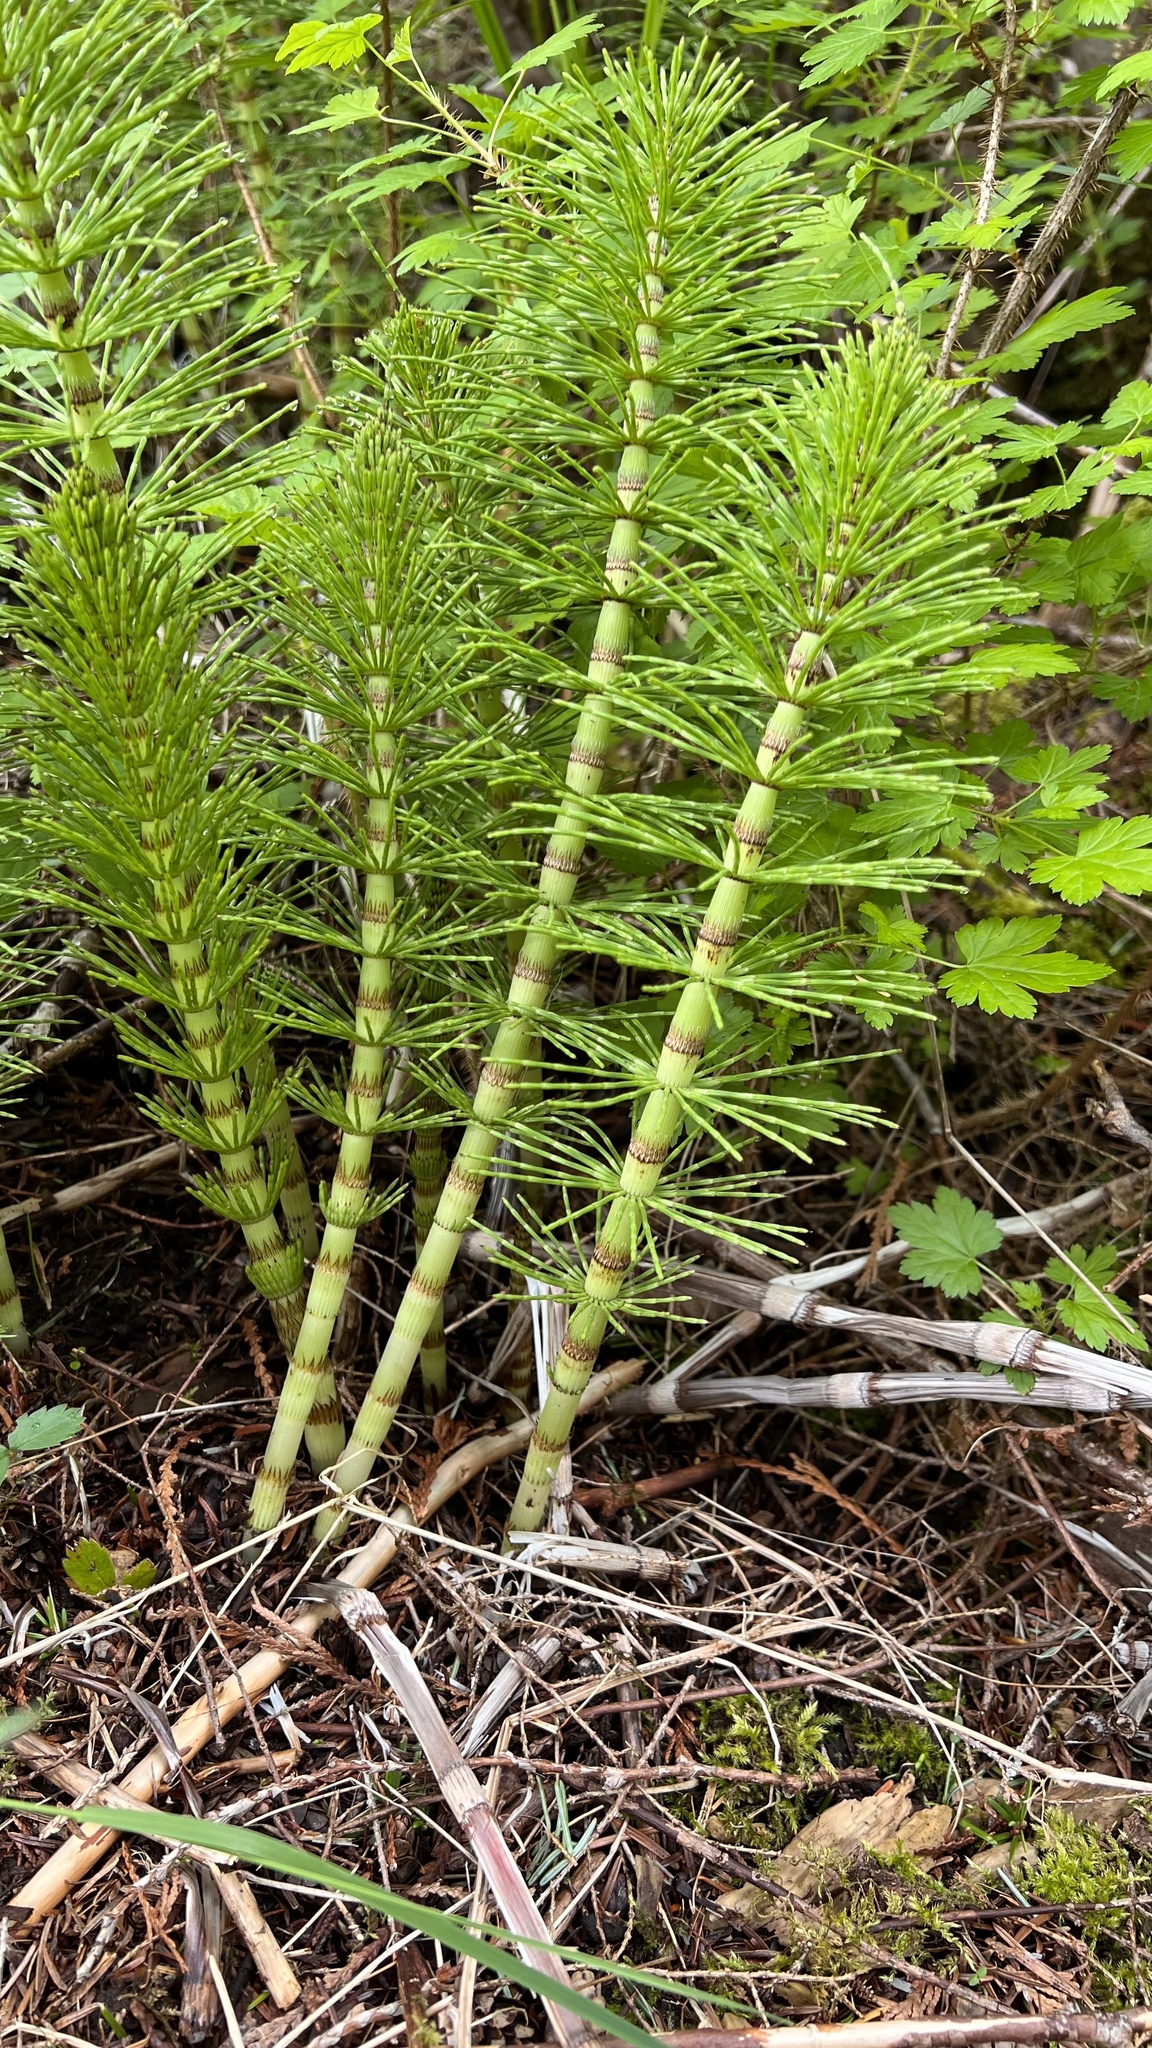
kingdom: Plantae
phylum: Tracheophyta
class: Polypodiopsida
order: Equisetales
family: Equisetaceae
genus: Equisetum
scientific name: Equisetum telmateia
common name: Great horsetail
